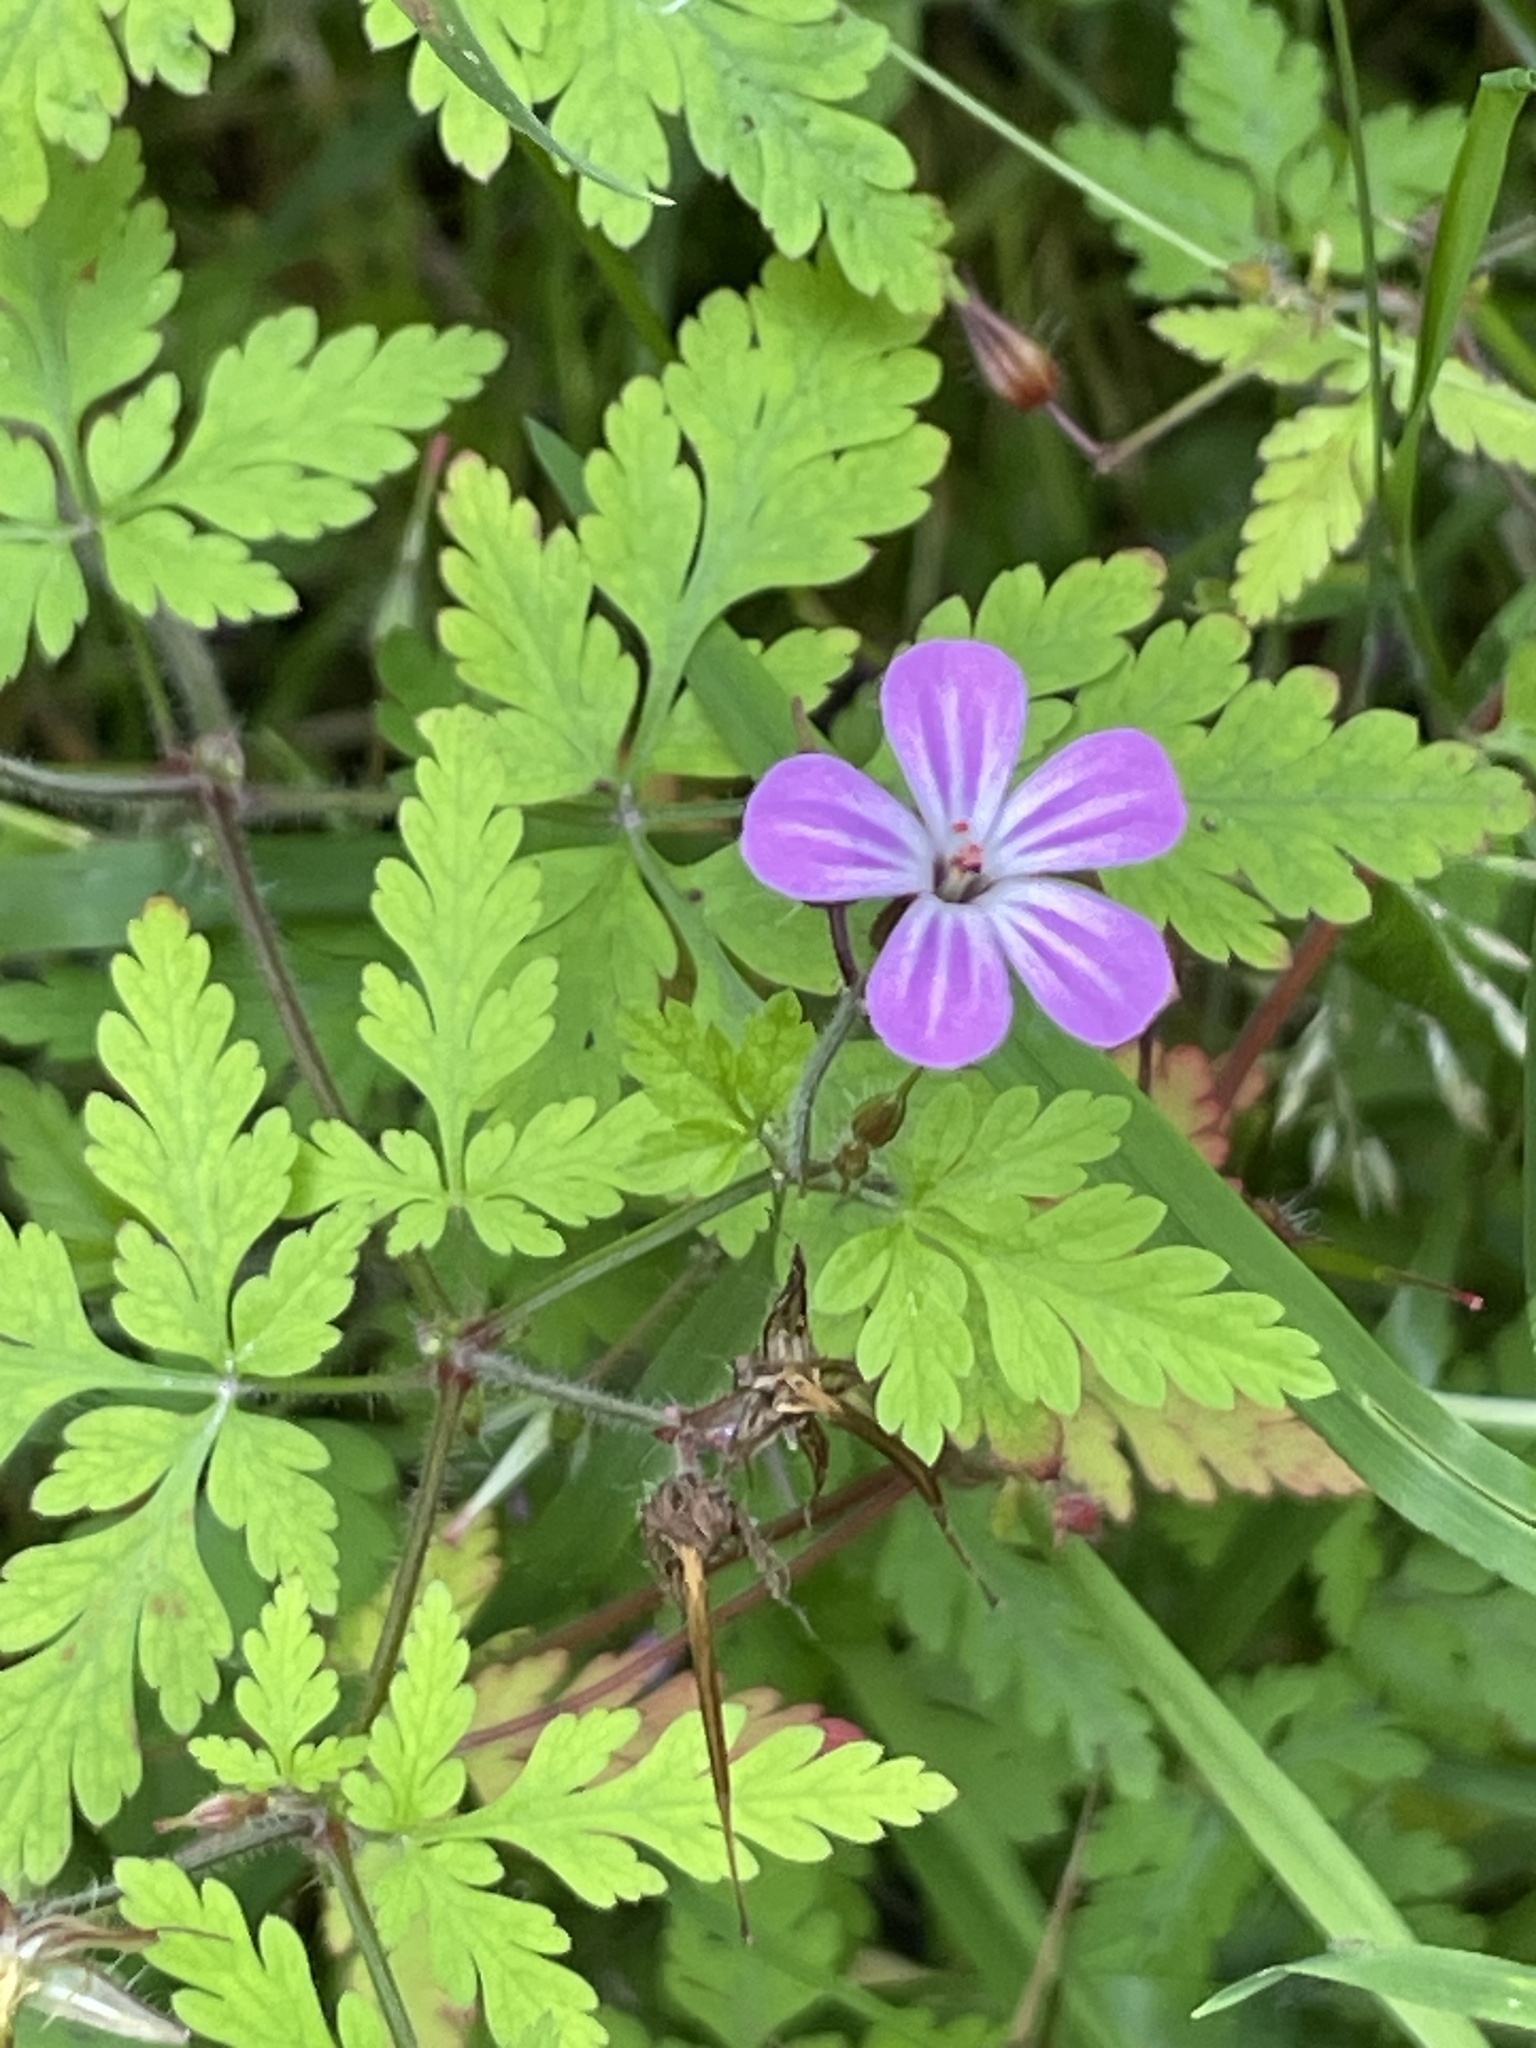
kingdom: Plantae
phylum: Tracheophyta
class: Magnoliopsida
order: Geraniales
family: Geraniaceae
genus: Geranium
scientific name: Geranium robertianum
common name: Herb-robert
